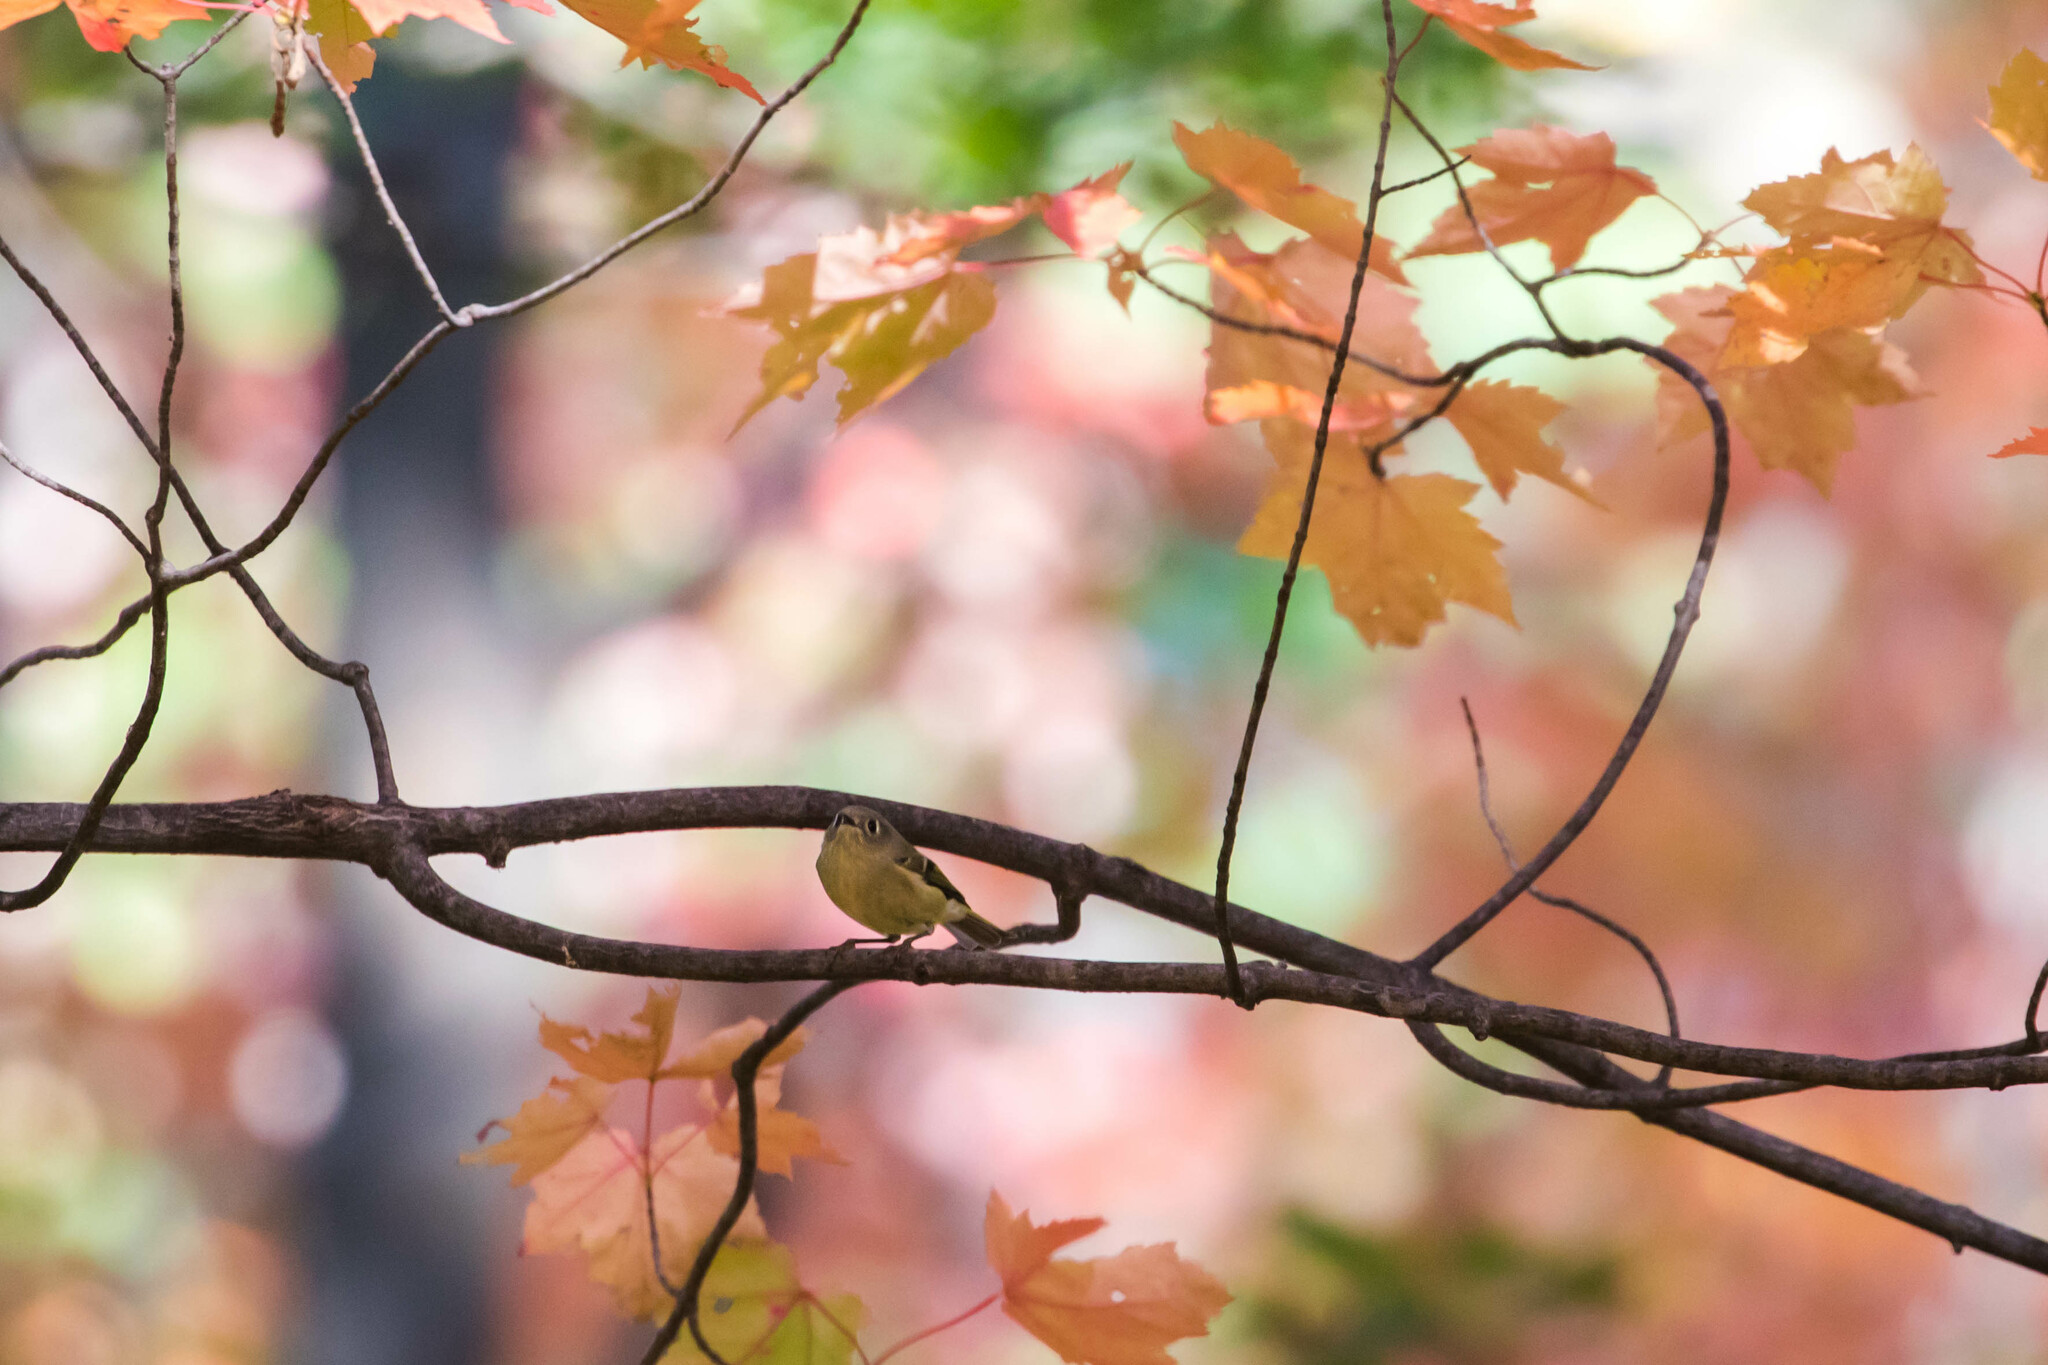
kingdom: Animalia
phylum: Chordata
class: Aves
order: Passeriformes
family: Regulidae
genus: Regulus
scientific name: Regulus calendula
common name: Ruby-crowned kinglet
